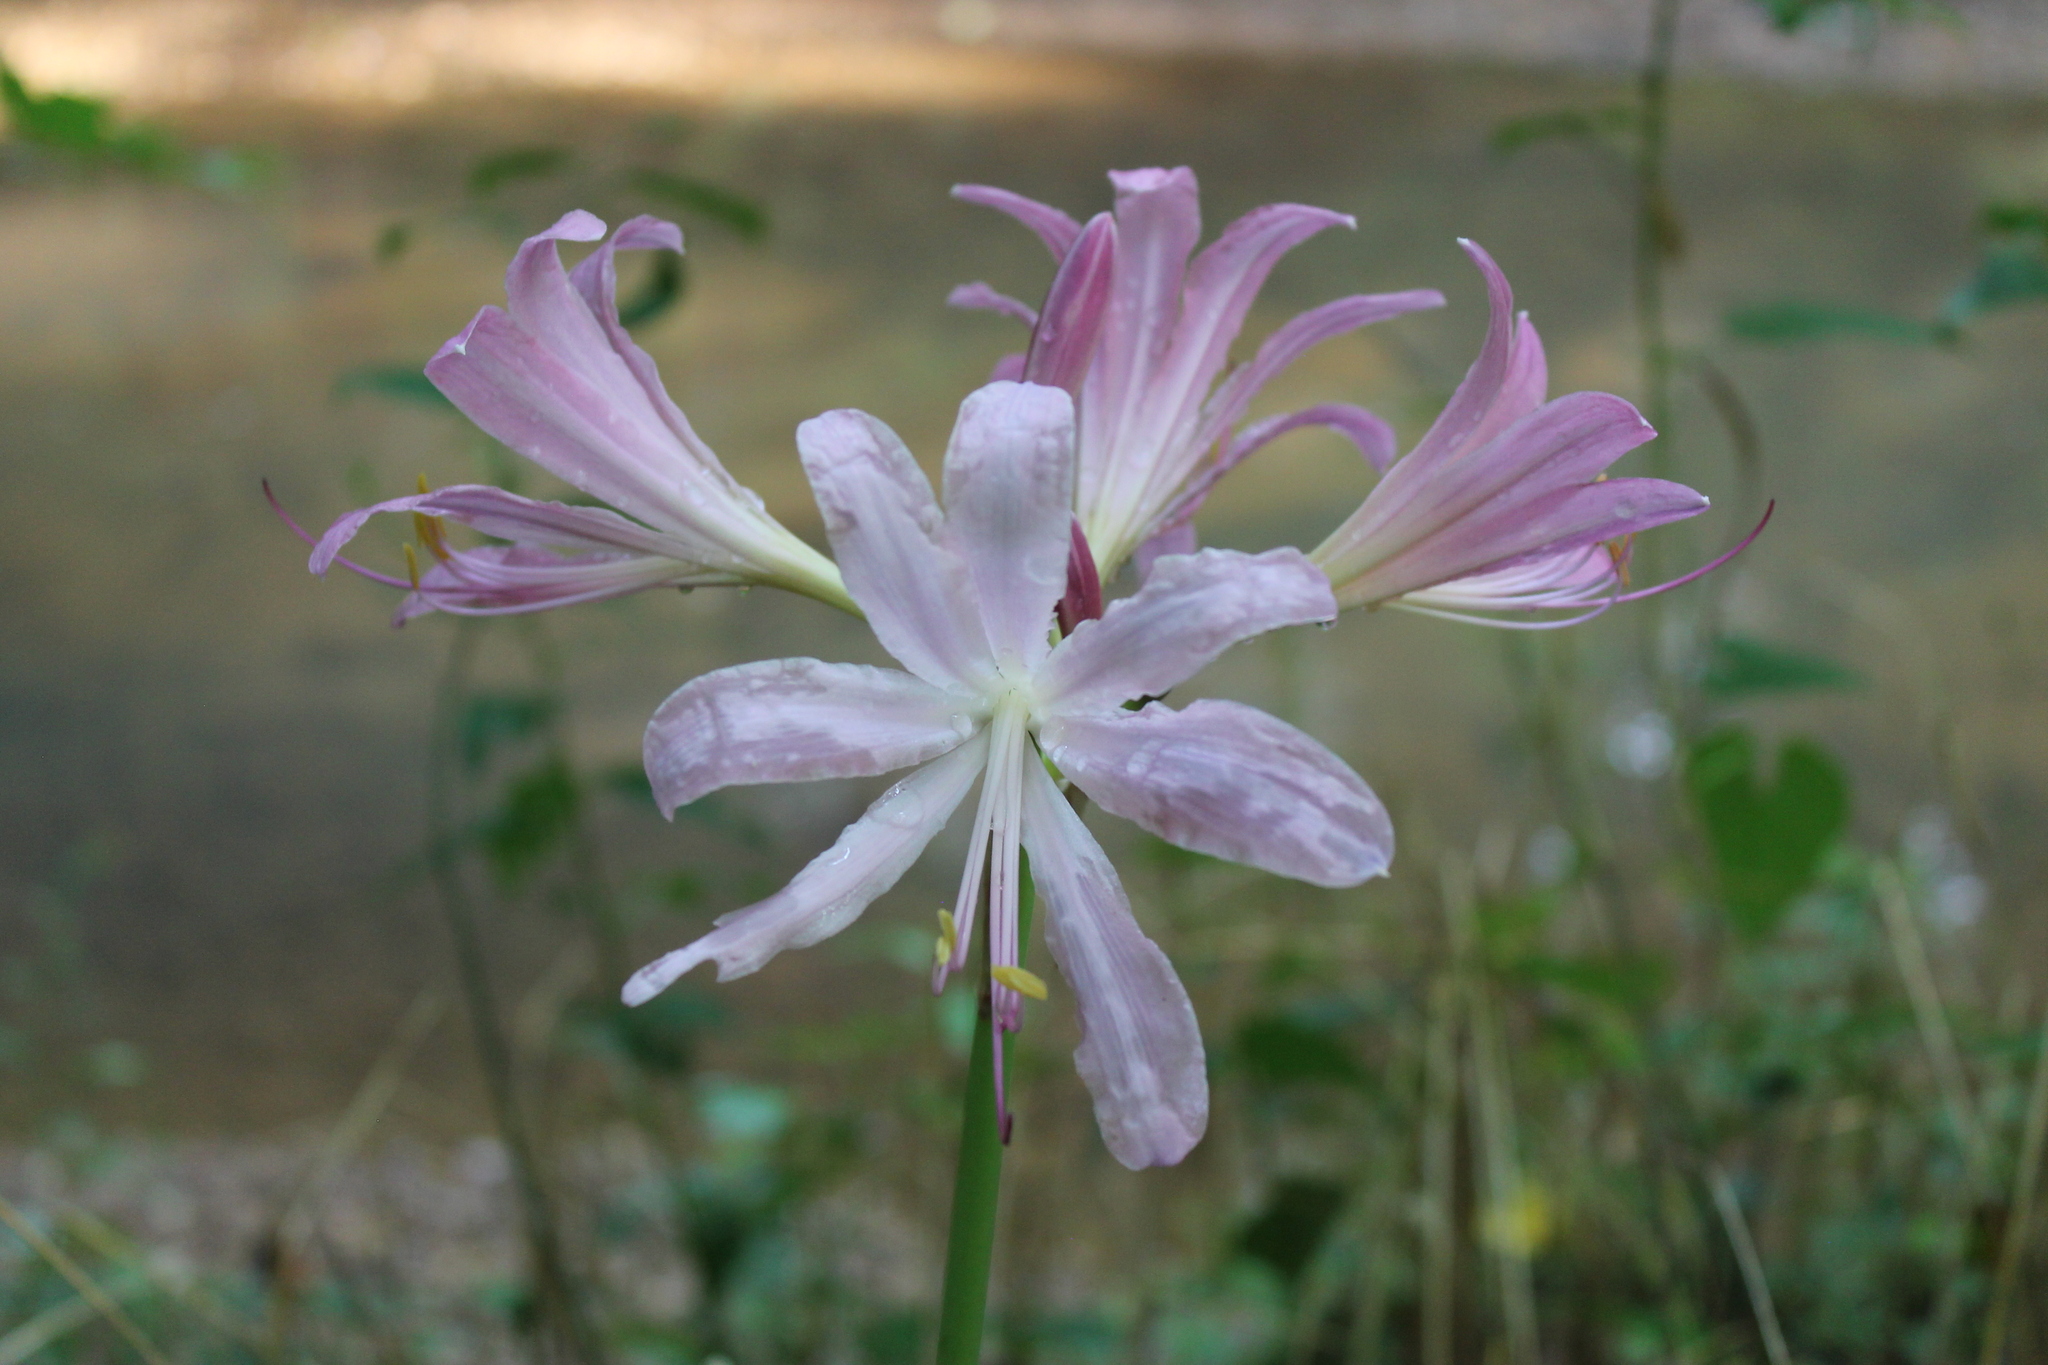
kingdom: Plantae
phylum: Tracheophyta
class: Liliopsida
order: Asparagales
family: Amaryllidaceae
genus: Lycoris
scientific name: Lycoris squamigera
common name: Magic-lily
